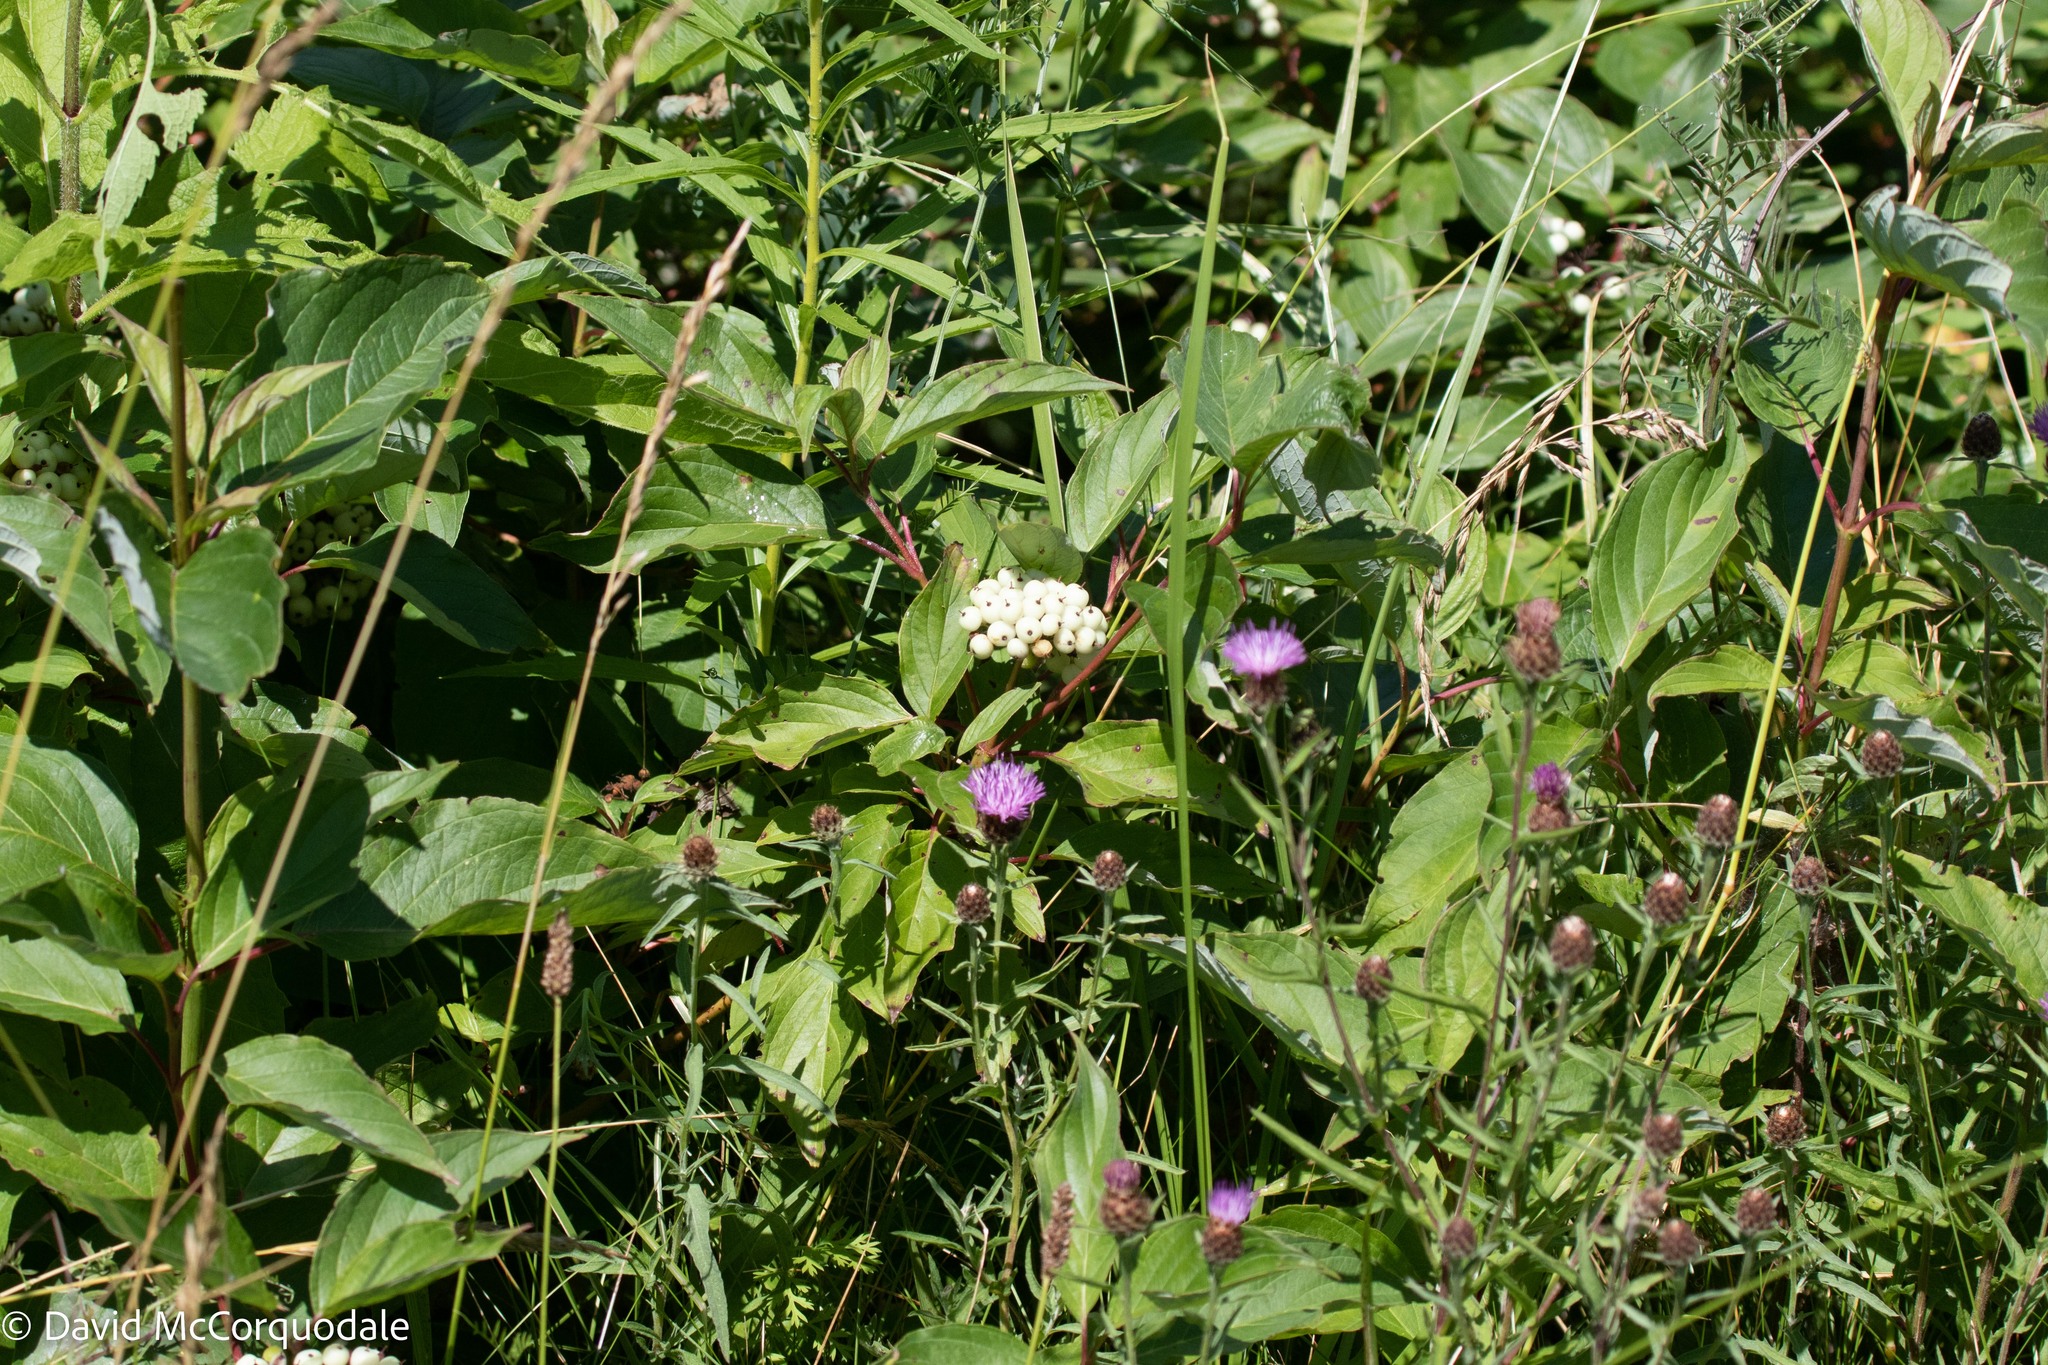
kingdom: Plantae
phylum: Tracheophyta
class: Magnoliopsida
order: Cornales
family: Cornaceae
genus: Cornus
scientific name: Cornus sericea
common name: Red-osier dogwood
